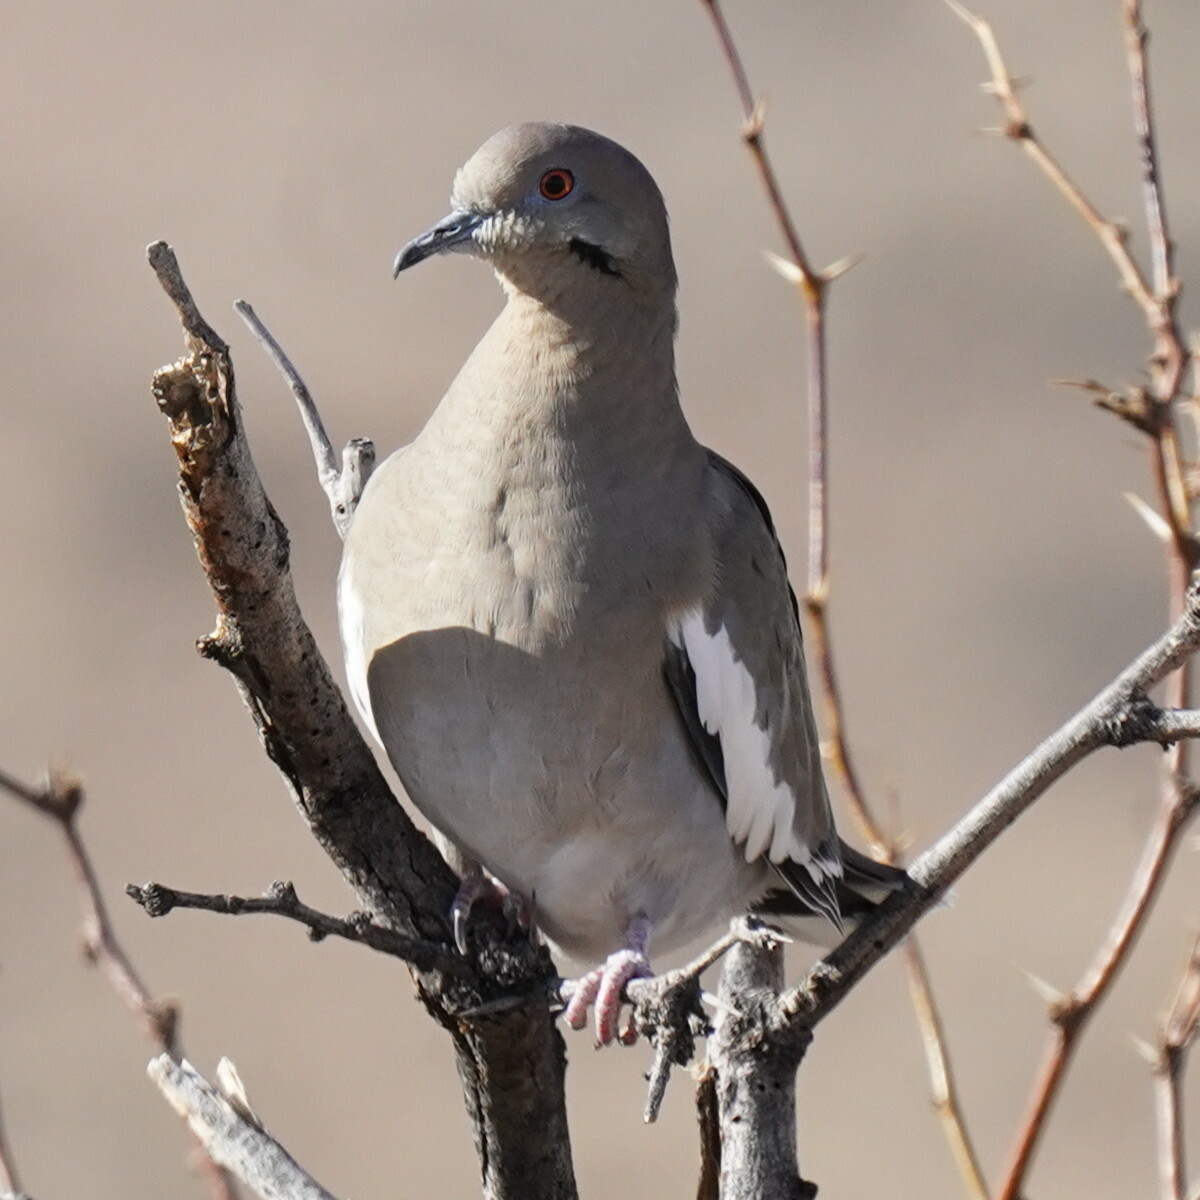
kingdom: Animalia
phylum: Chordata
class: Aves
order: Columbiformes
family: Columbidae
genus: Zenaida
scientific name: Zenaida asiatica
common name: White-winged dove
